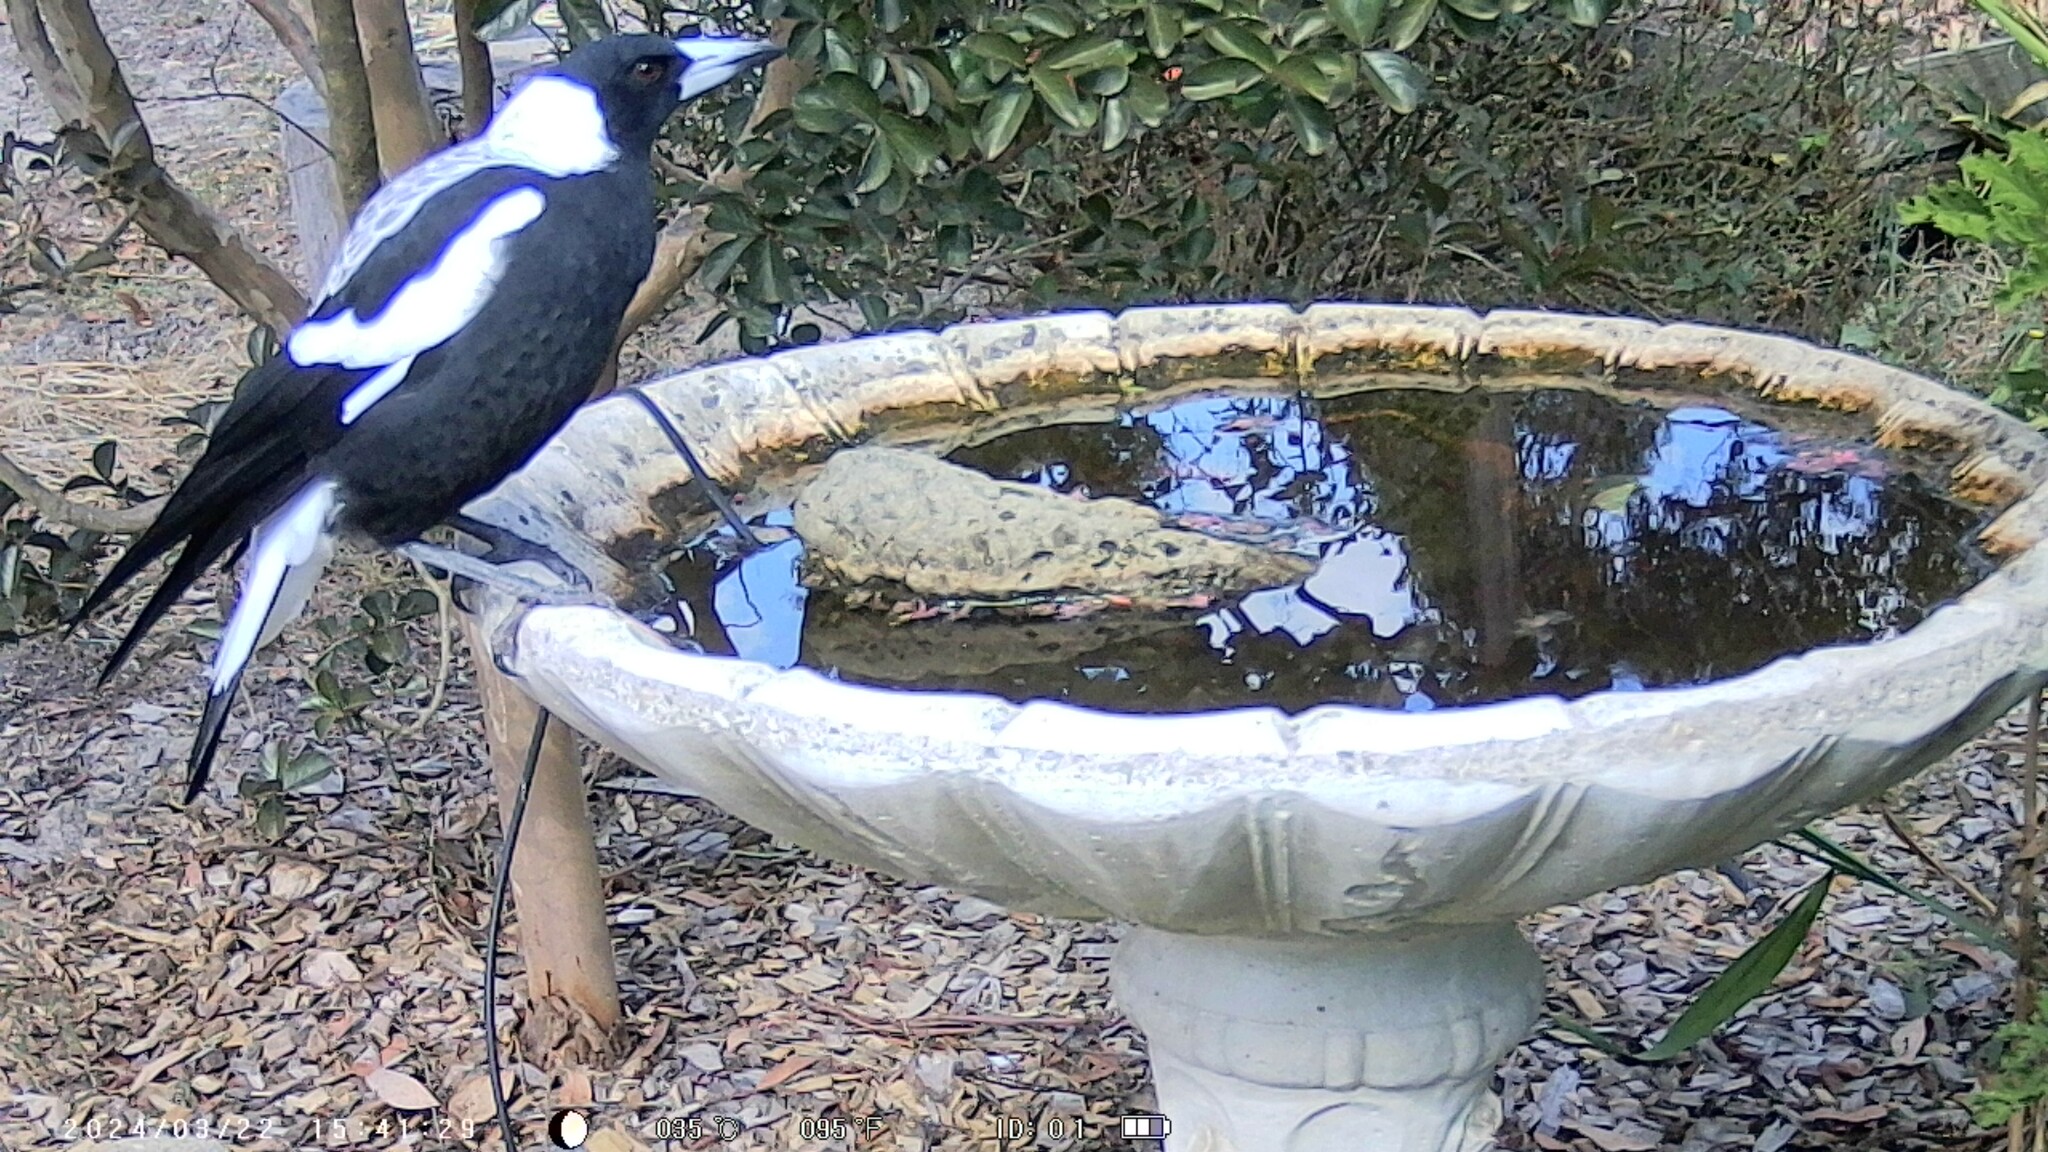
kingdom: Animalia
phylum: Chordata
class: Aves
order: Passeriformes
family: Cracticidae
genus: Gymnorhina
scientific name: Gymnorhina tibicen
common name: Australian magpie
